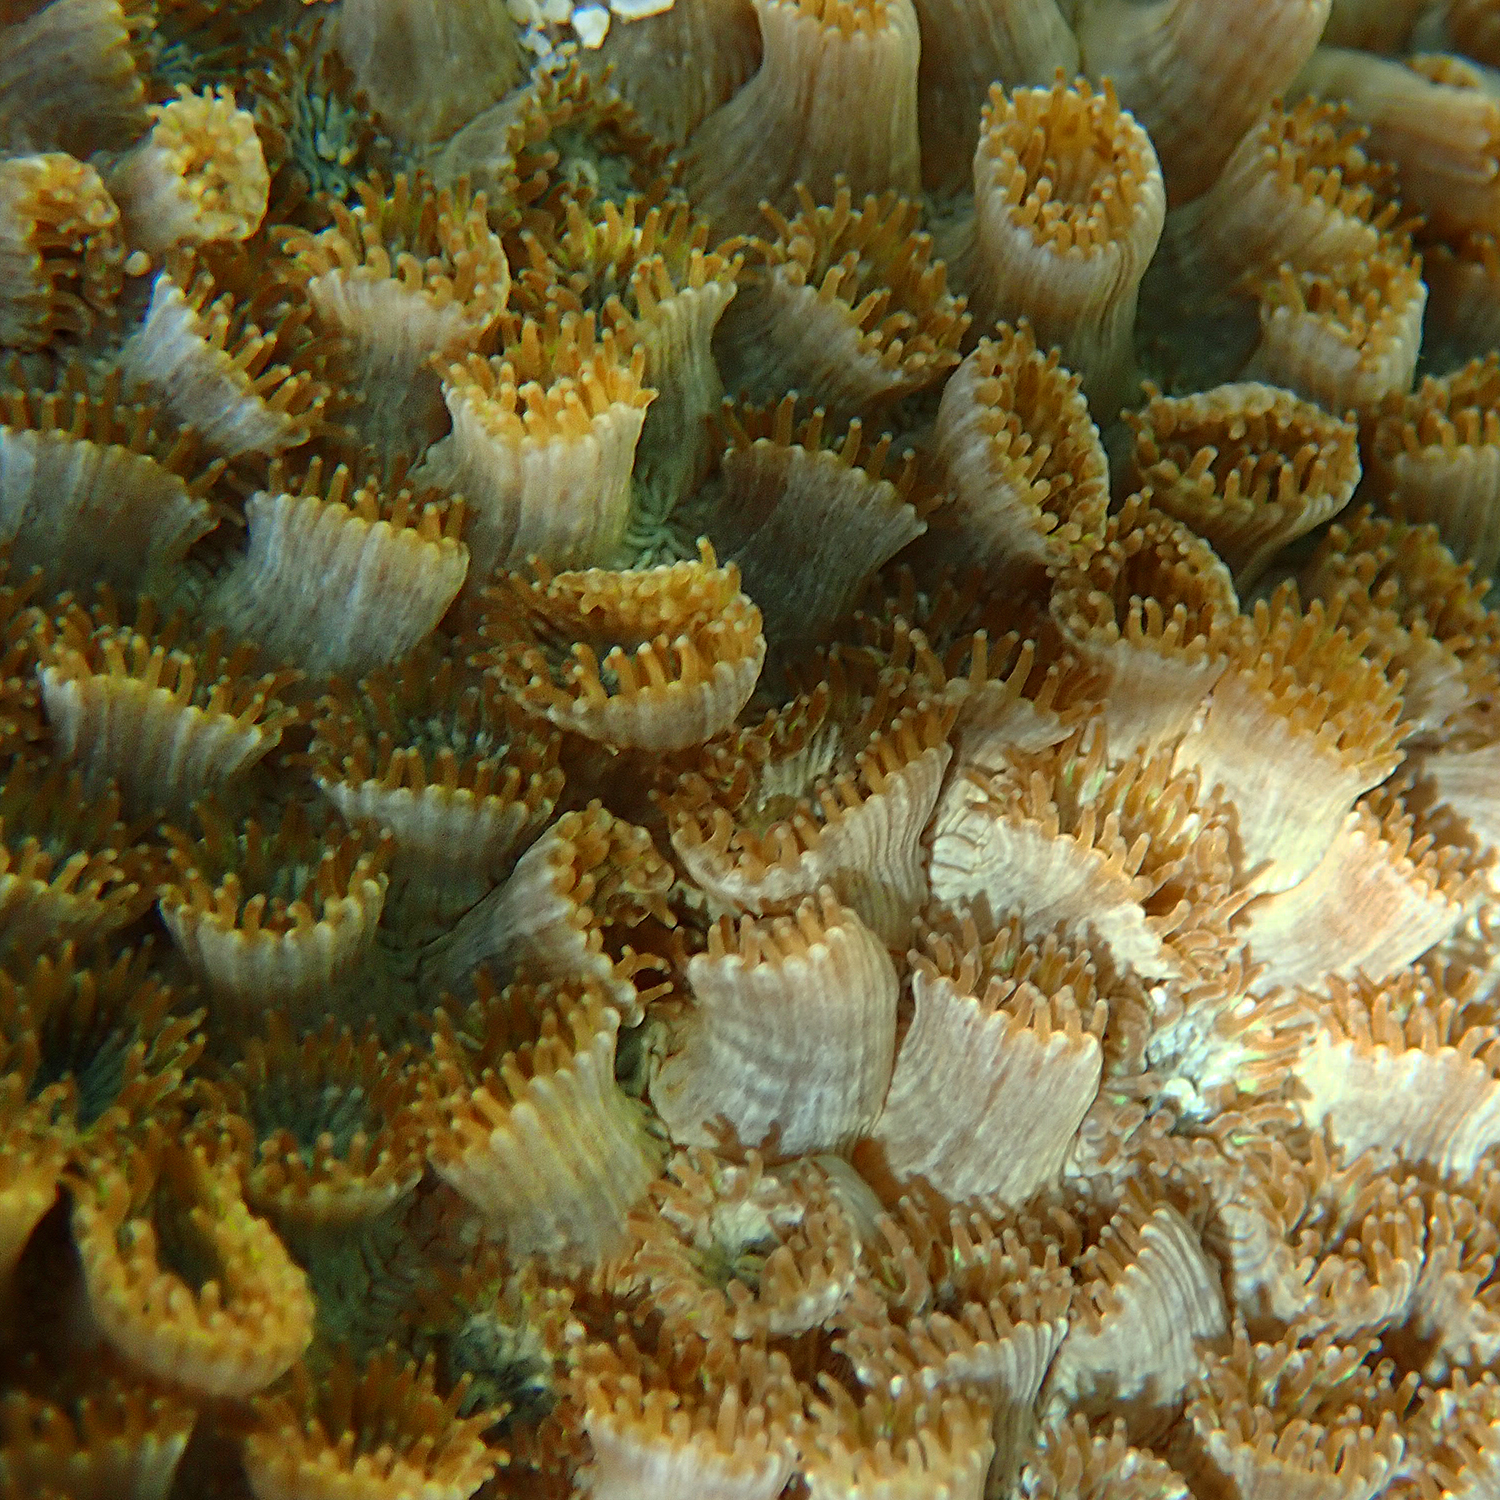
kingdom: Animalia
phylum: Cnidaria
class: Anthozoa
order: Scleractinia
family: Plesiastreidae
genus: Plesiastrea
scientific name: Plesiastrea versipora
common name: Small knob coral
